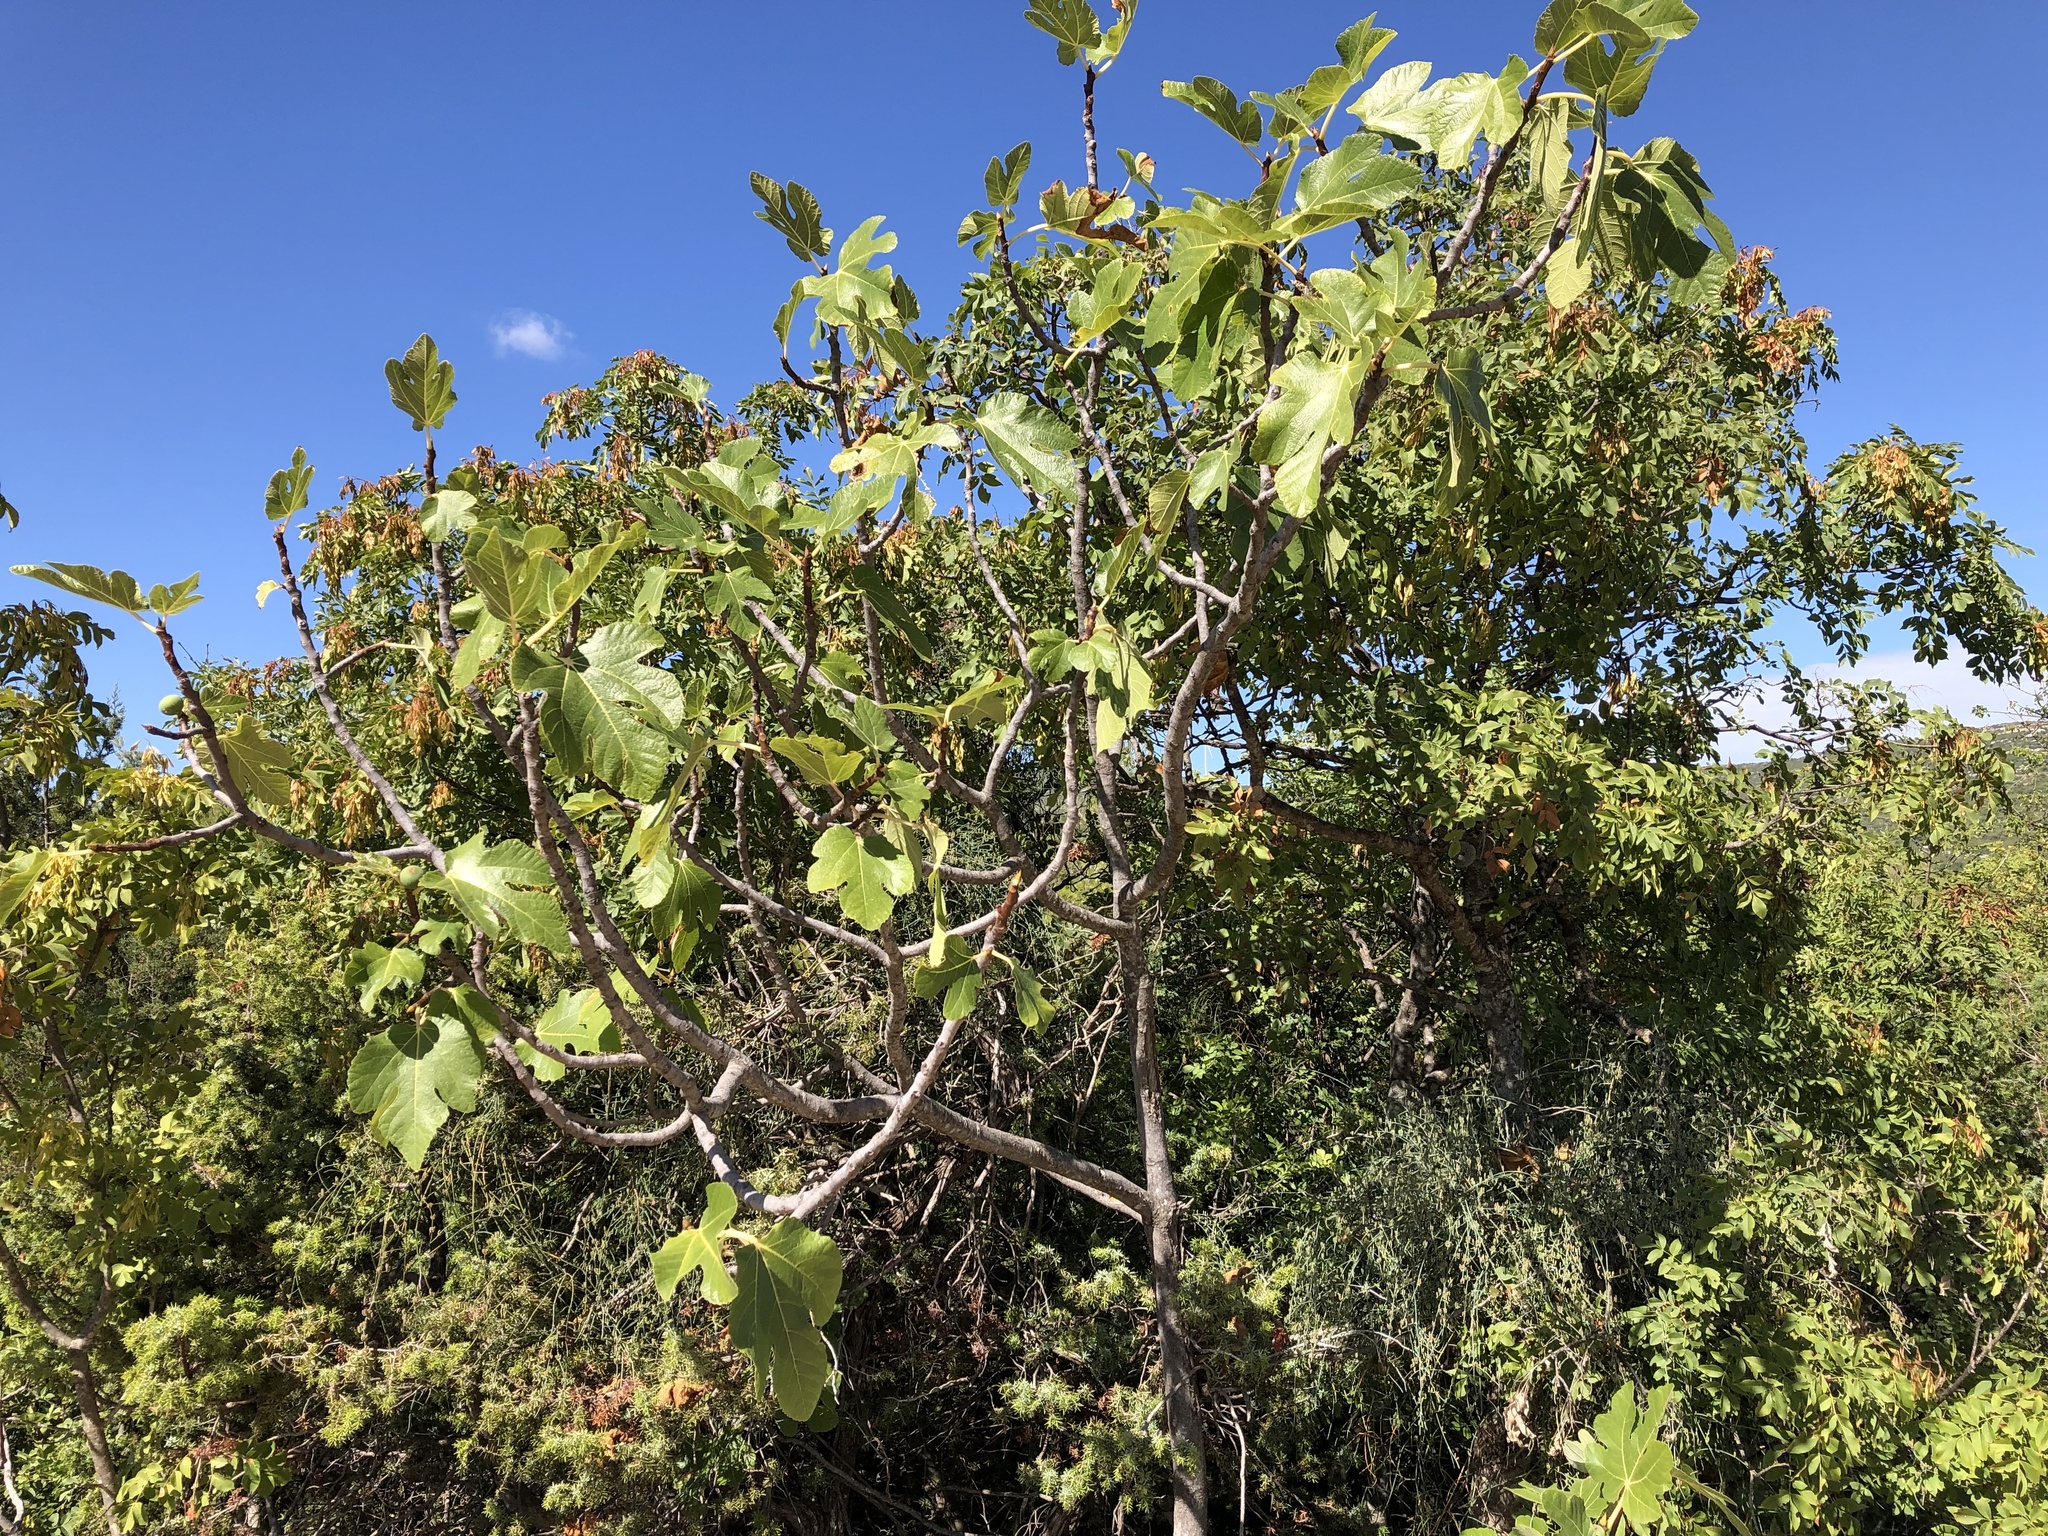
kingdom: Plantae
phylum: Tracheophyta
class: Magnoliopsida
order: Rosales
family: Moraceae
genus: Ficus
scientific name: Ficus carica
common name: Fig
